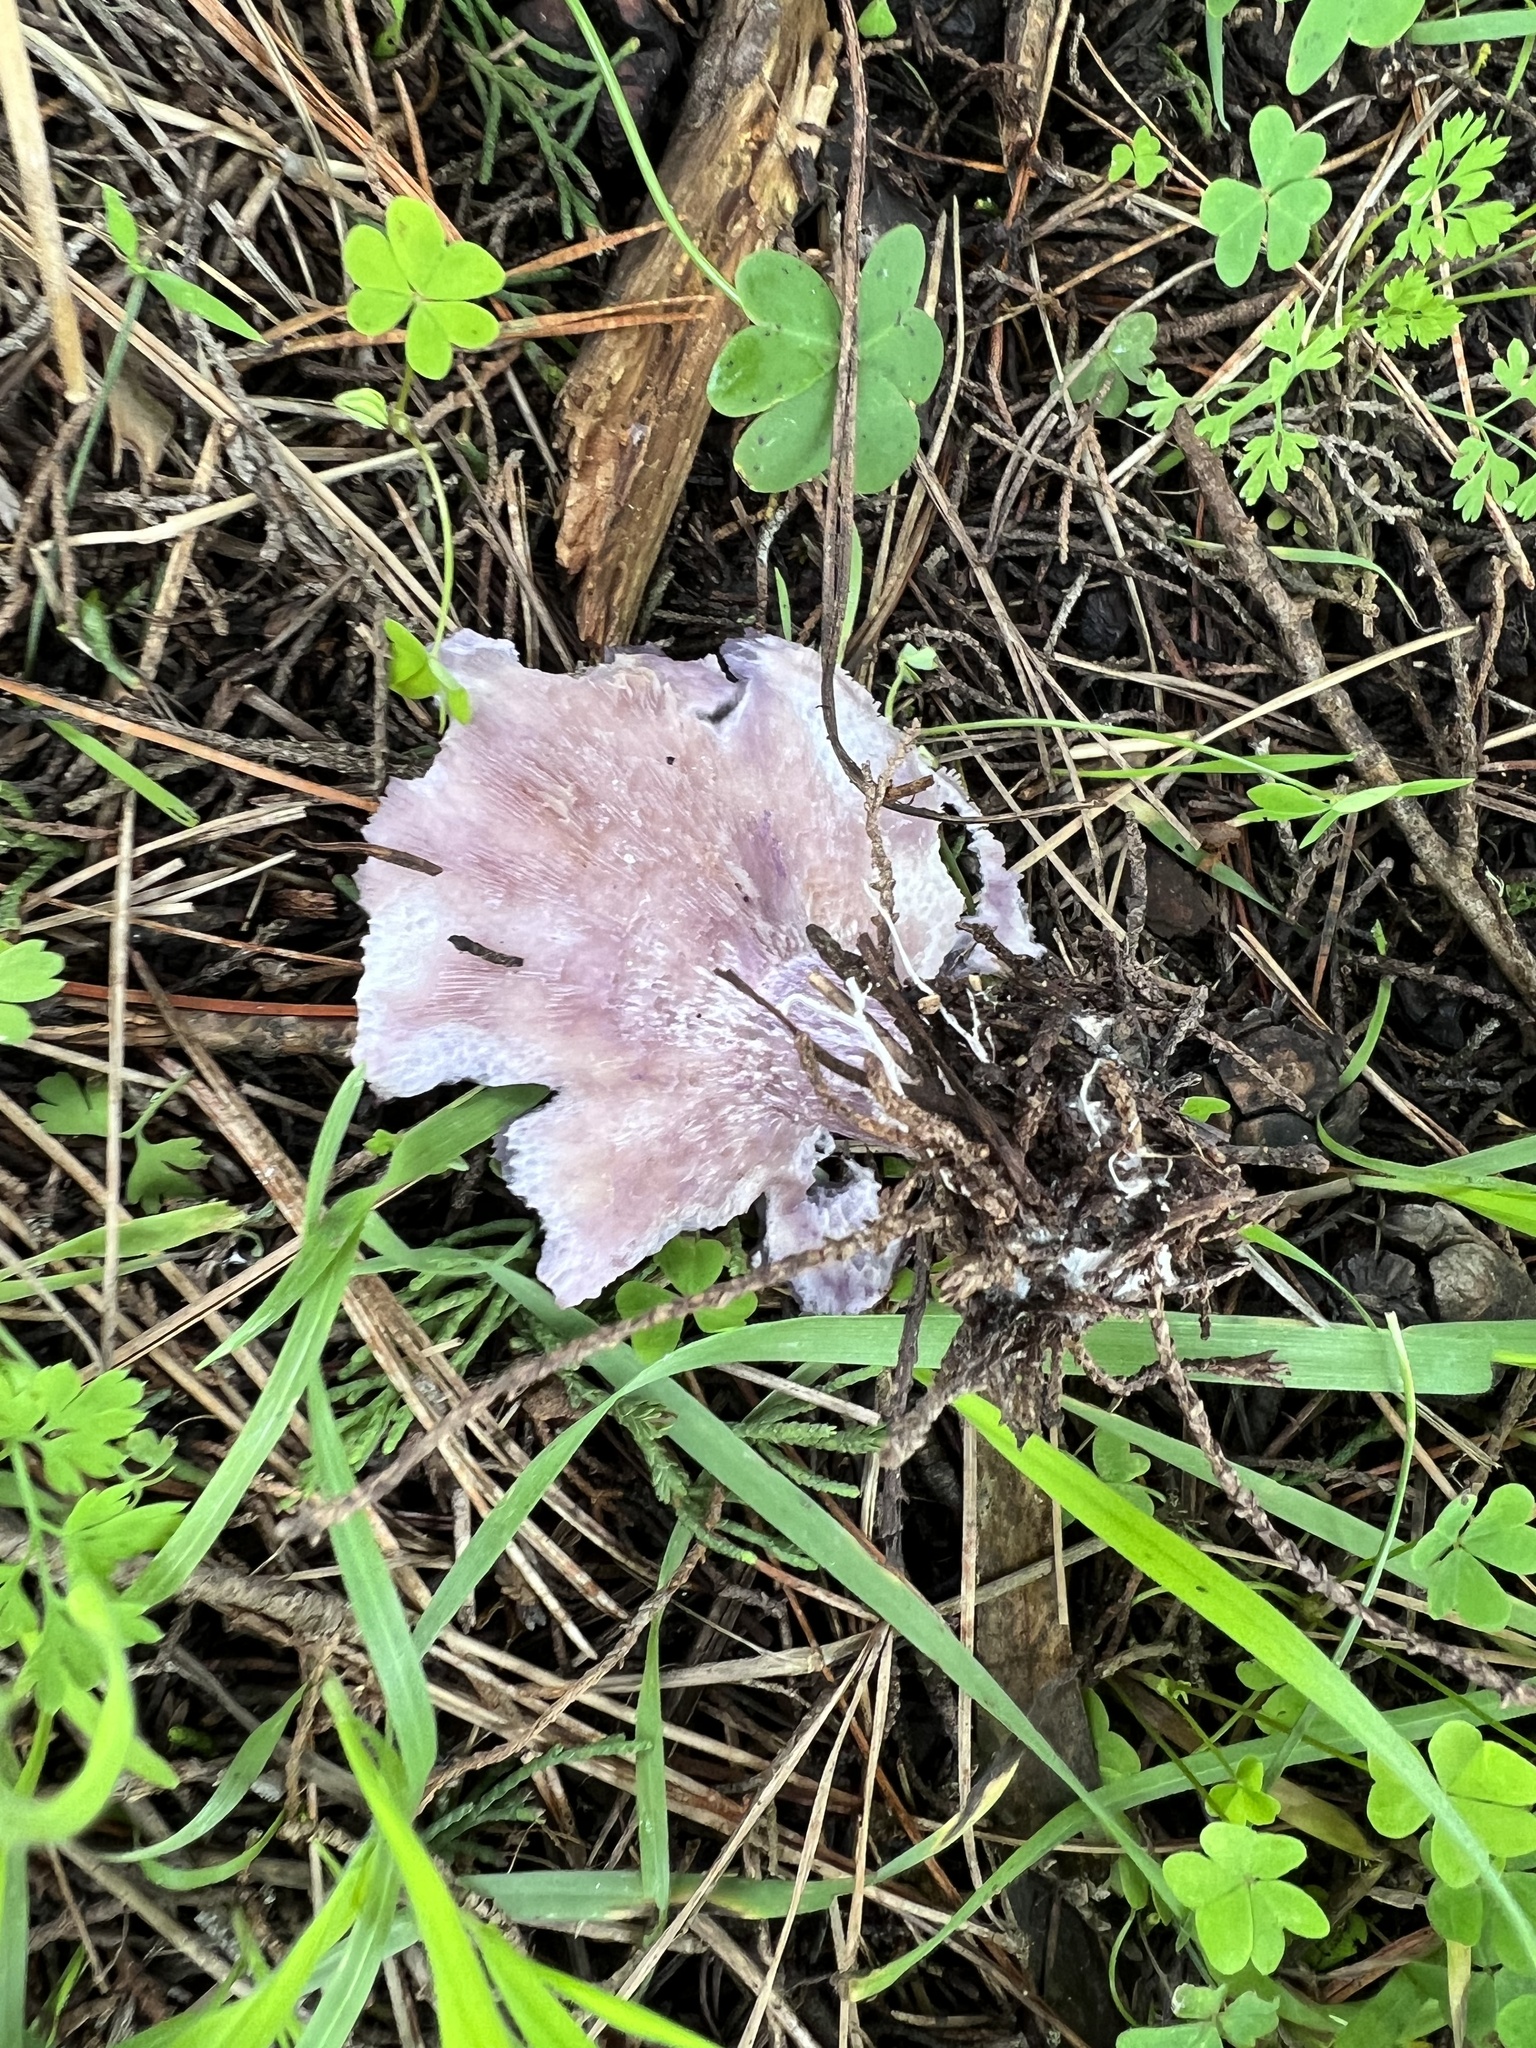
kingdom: Fungi
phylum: Basidiomycota
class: Agaricomycetes
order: Agaricales
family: Tricholomataceae
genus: Collybia
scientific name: Collybia
